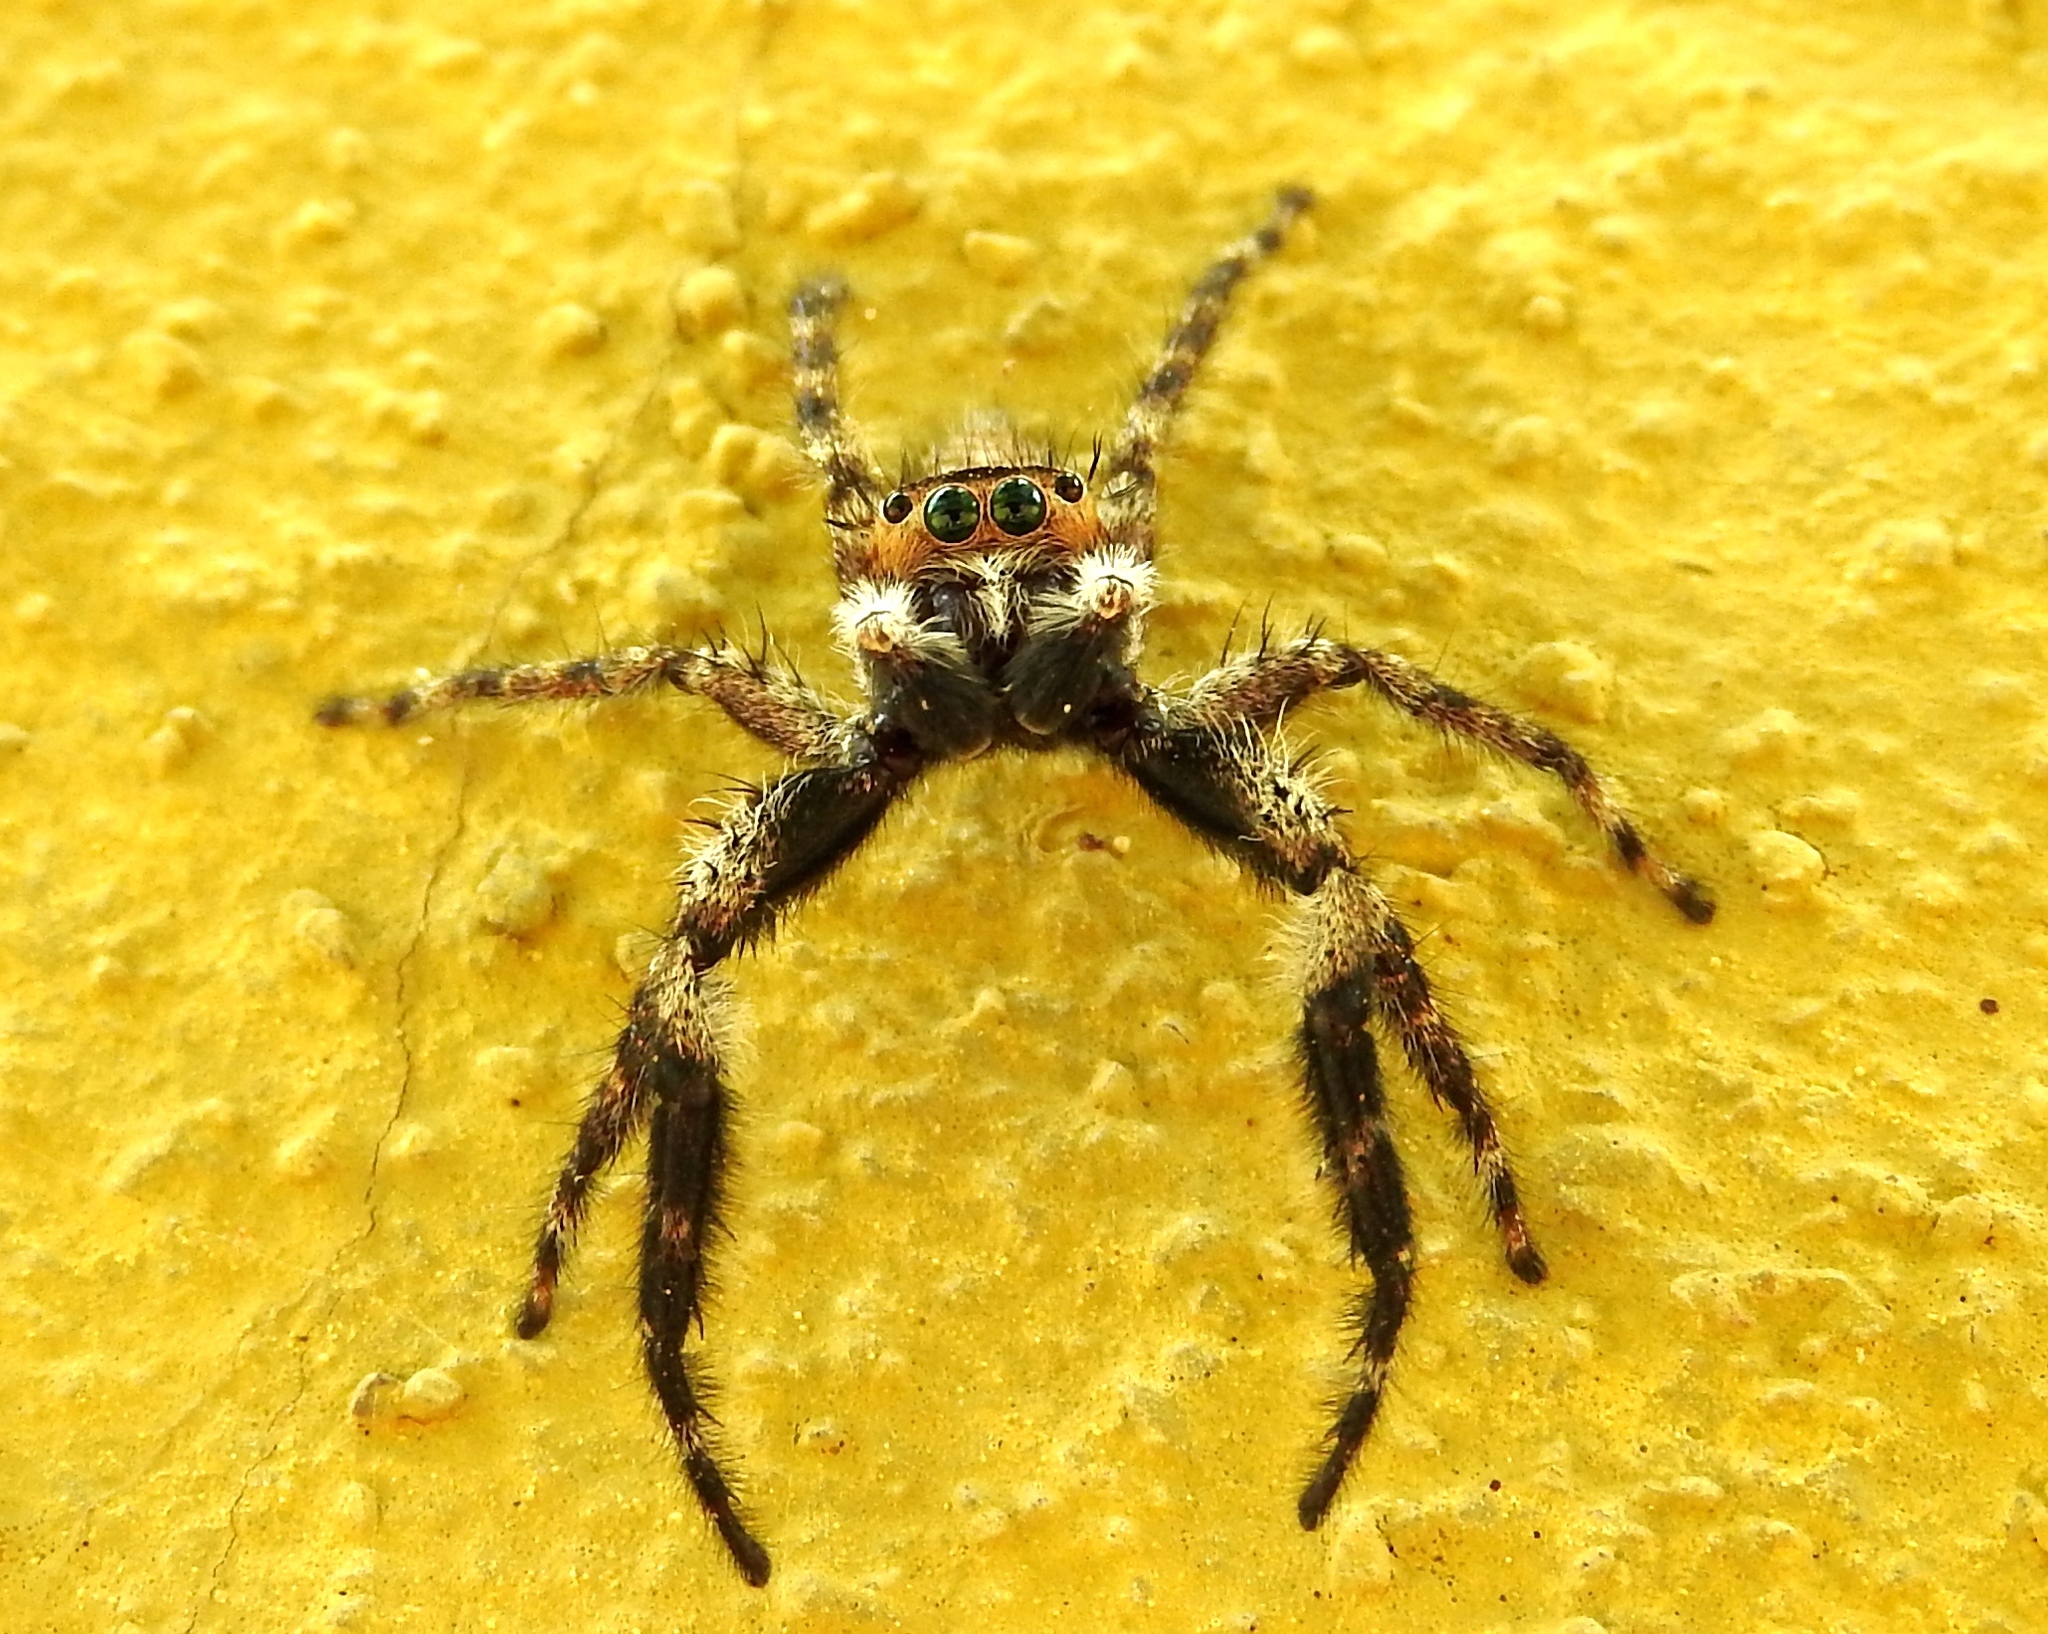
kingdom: Animalia
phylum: Arthropoda
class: Arachnida
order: Araneae
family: Salticidae
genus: Balmaceda
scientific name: Balmaceda
